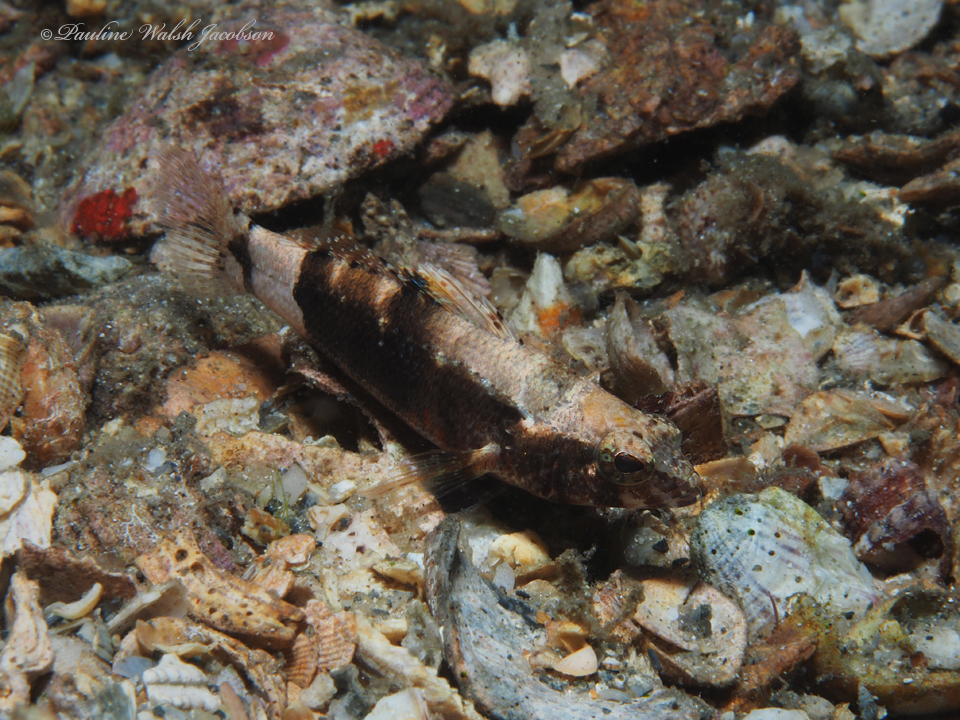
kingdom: Animalia
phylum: Chordata
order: Perciformes
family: Serranidae
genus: Serraniculus
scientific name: Serraniculus pumilio
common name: Pygmy sea bass
